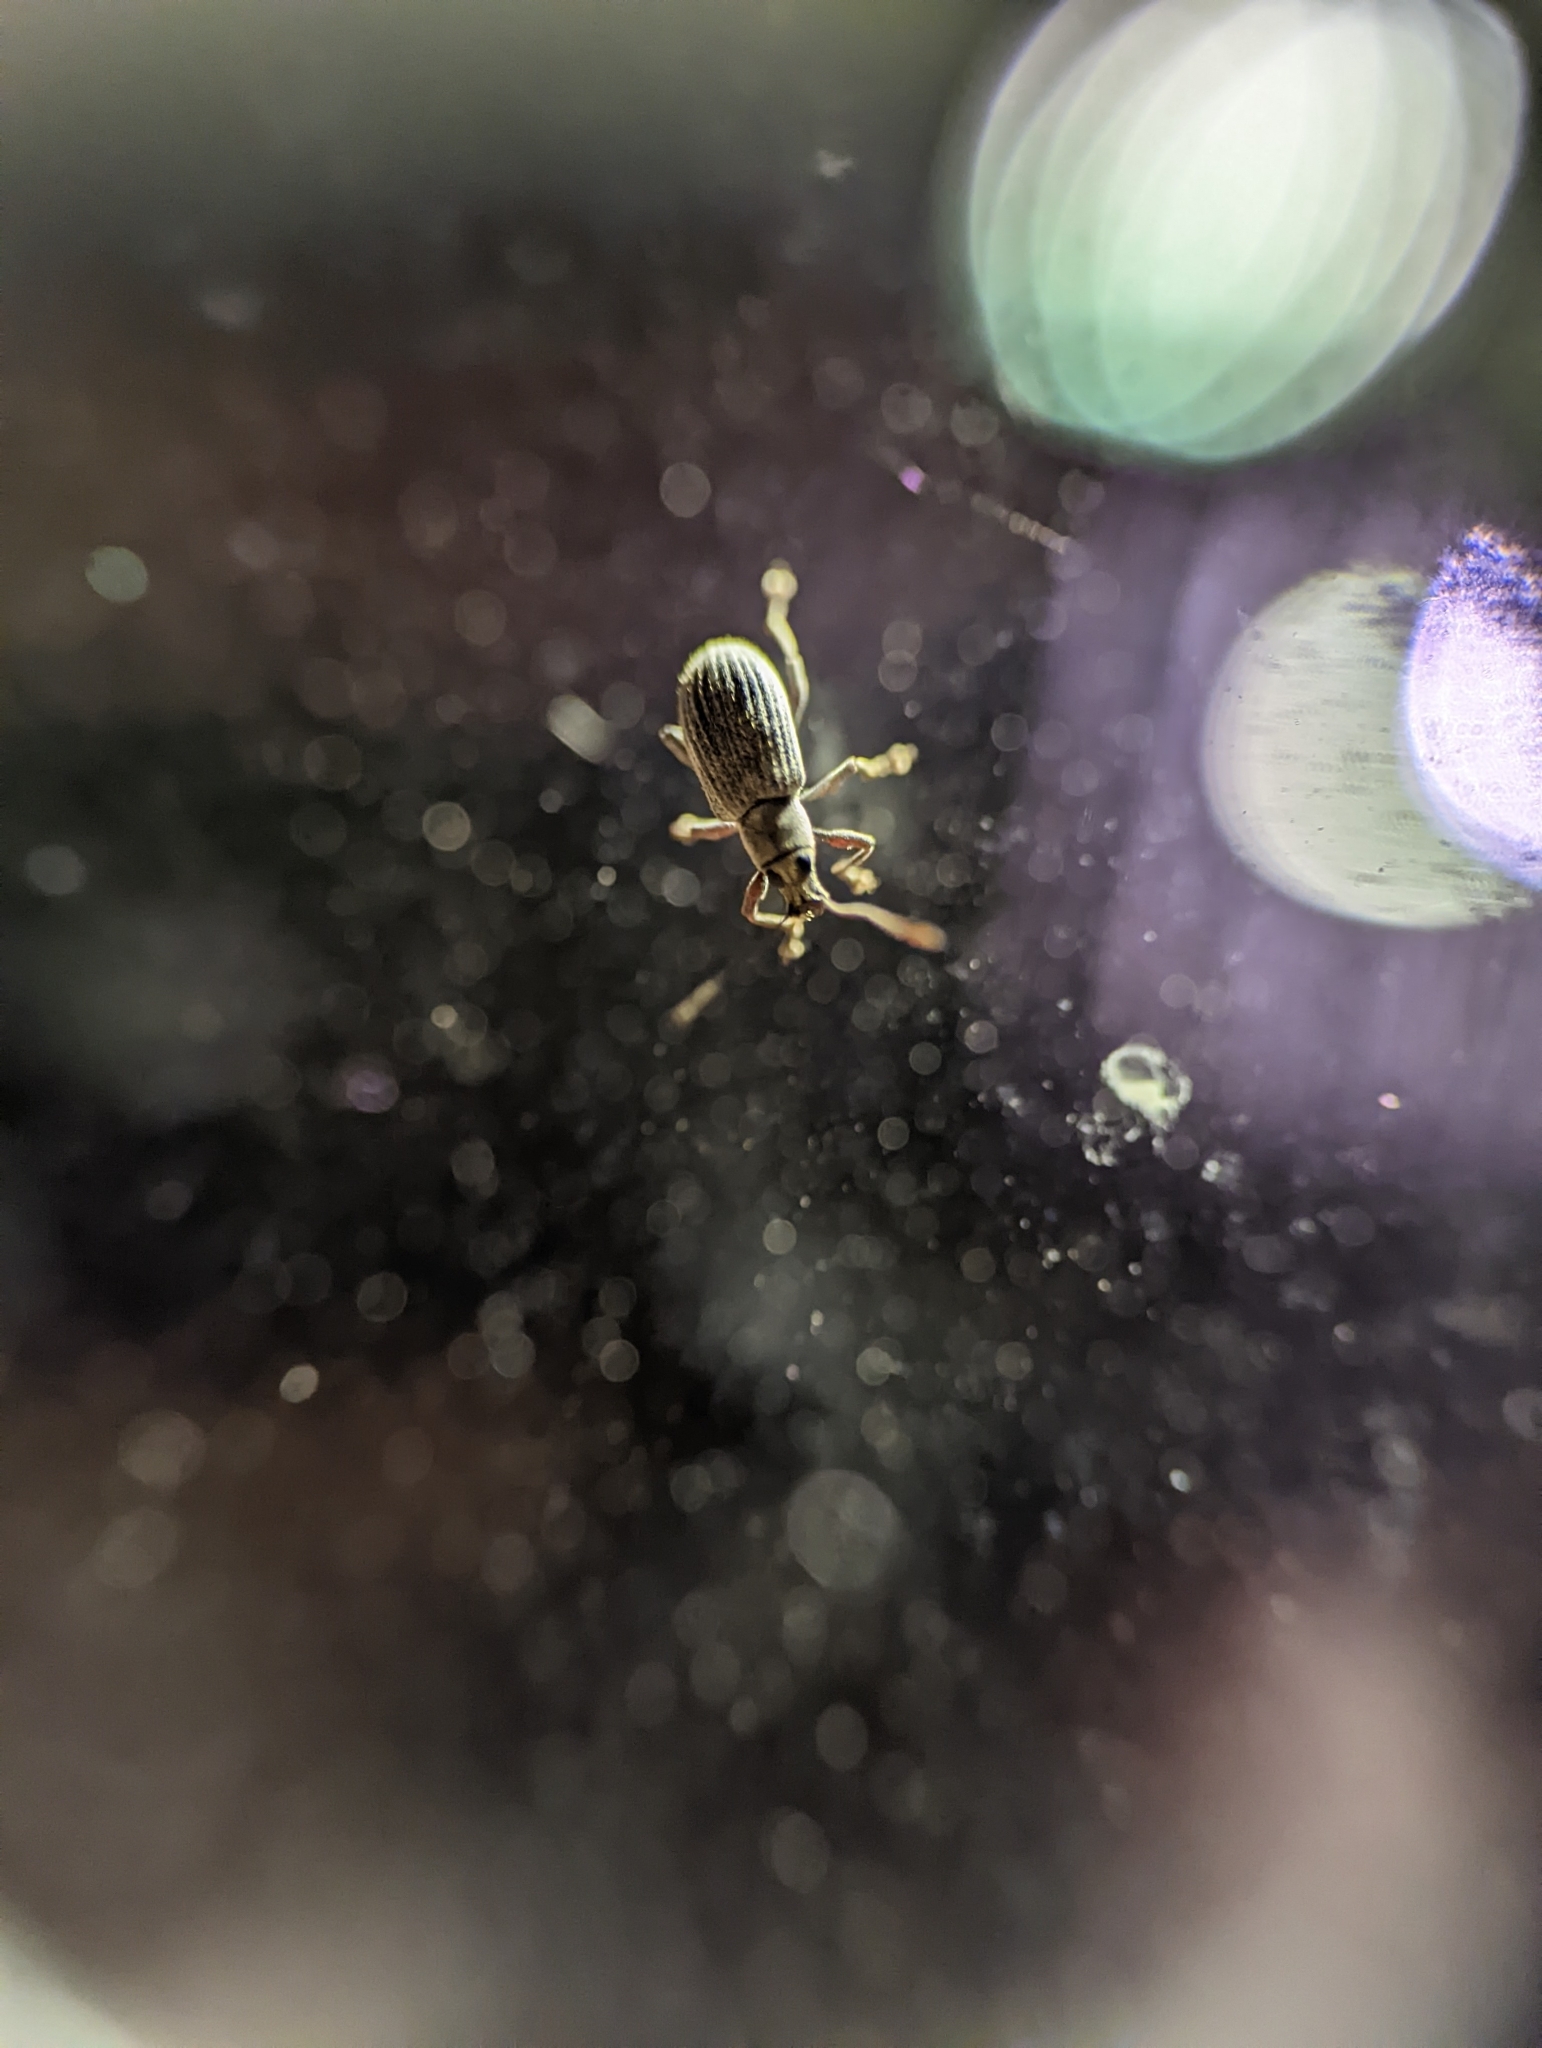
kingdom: Animalia
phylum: Arthropoda
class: Insecta
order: Coleoptera
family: Curculionidae
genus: Cyrtepistomus
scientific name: Cyrtepistomus castaneus
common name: Weevil
